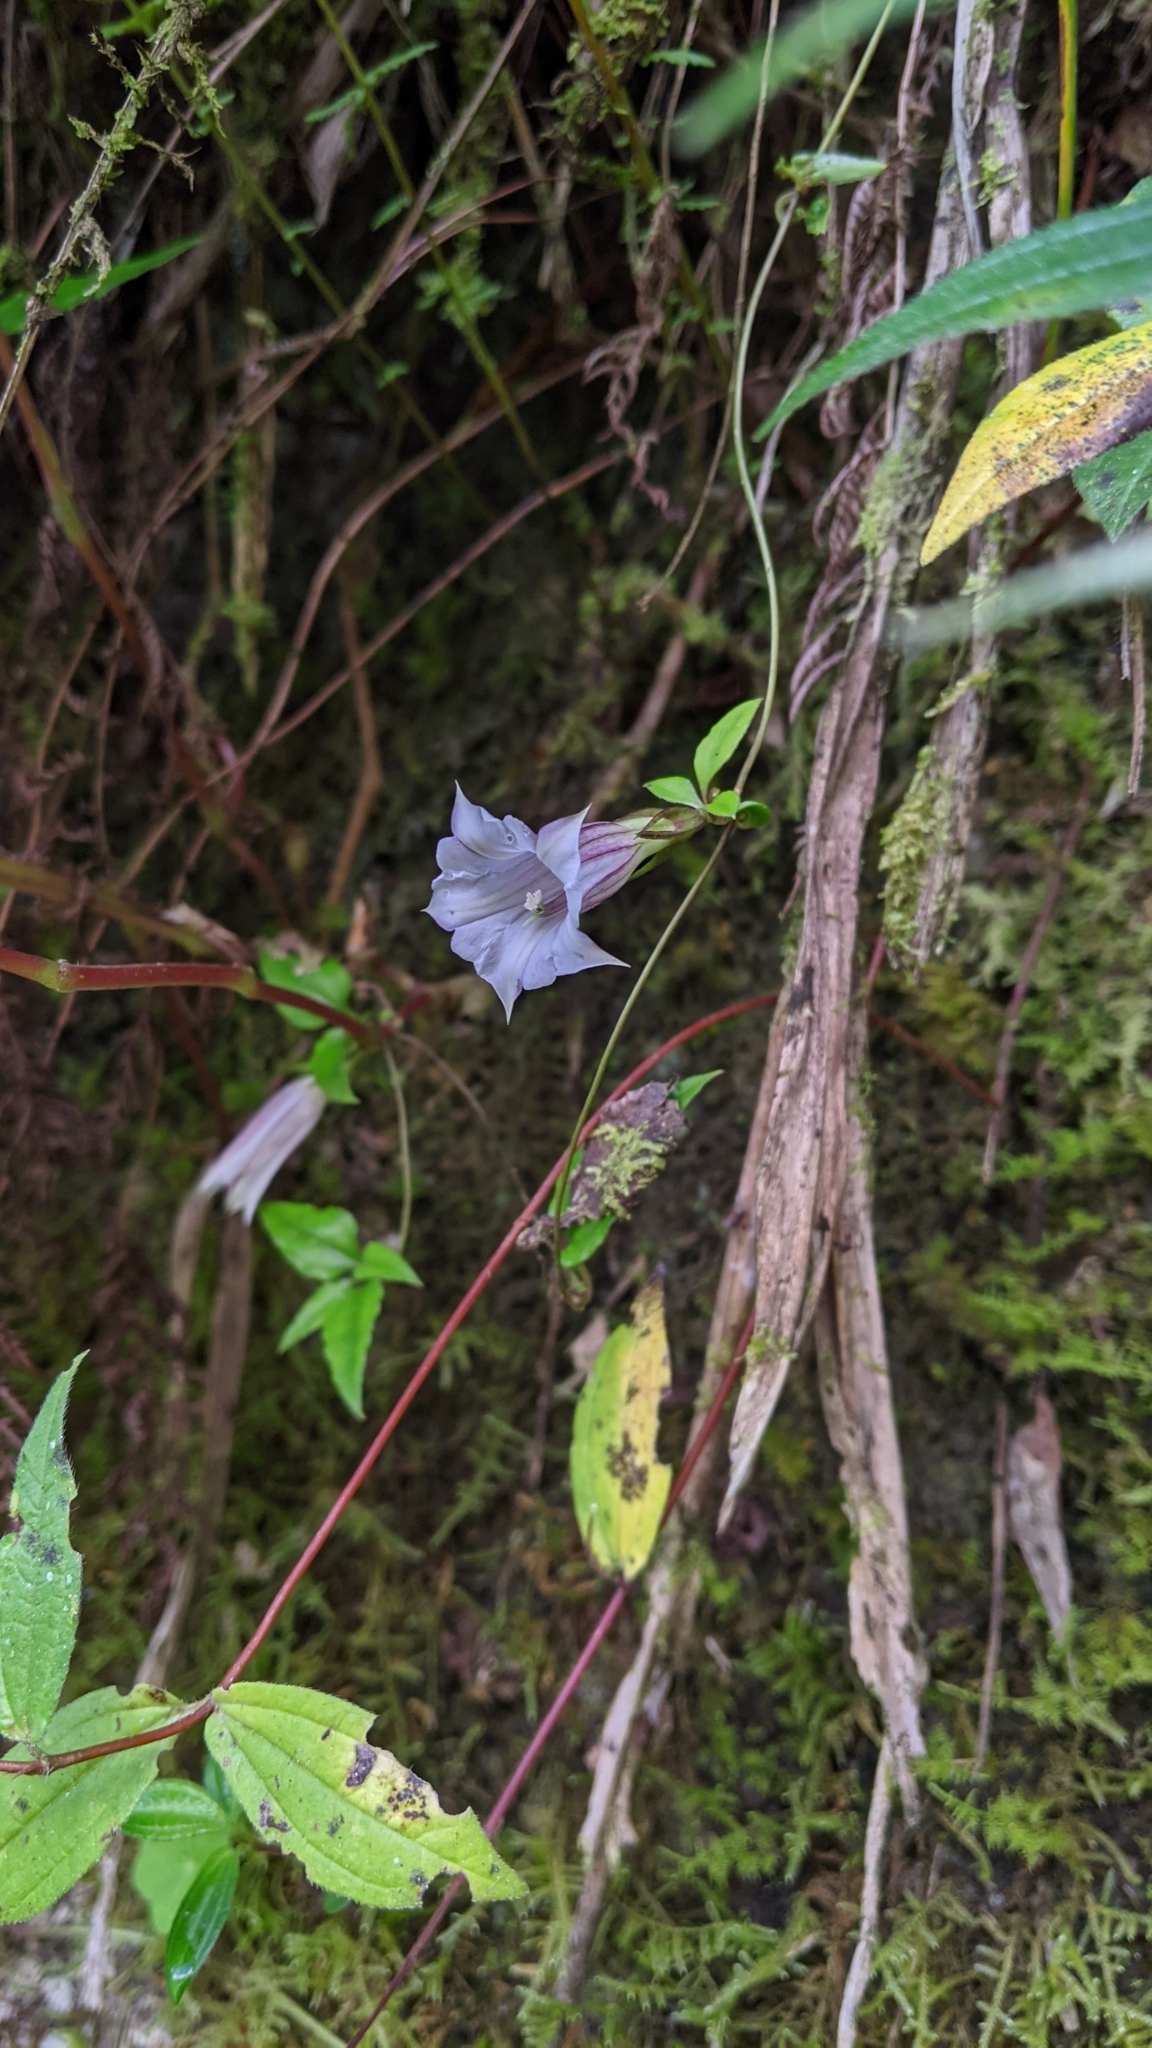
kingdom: Plantae
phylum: Tracheophyta
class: Magnoliopsida
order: Gentianales
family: Gentianaceae
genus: Tripterospermum
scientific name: Tripterospermum lanceolatum
